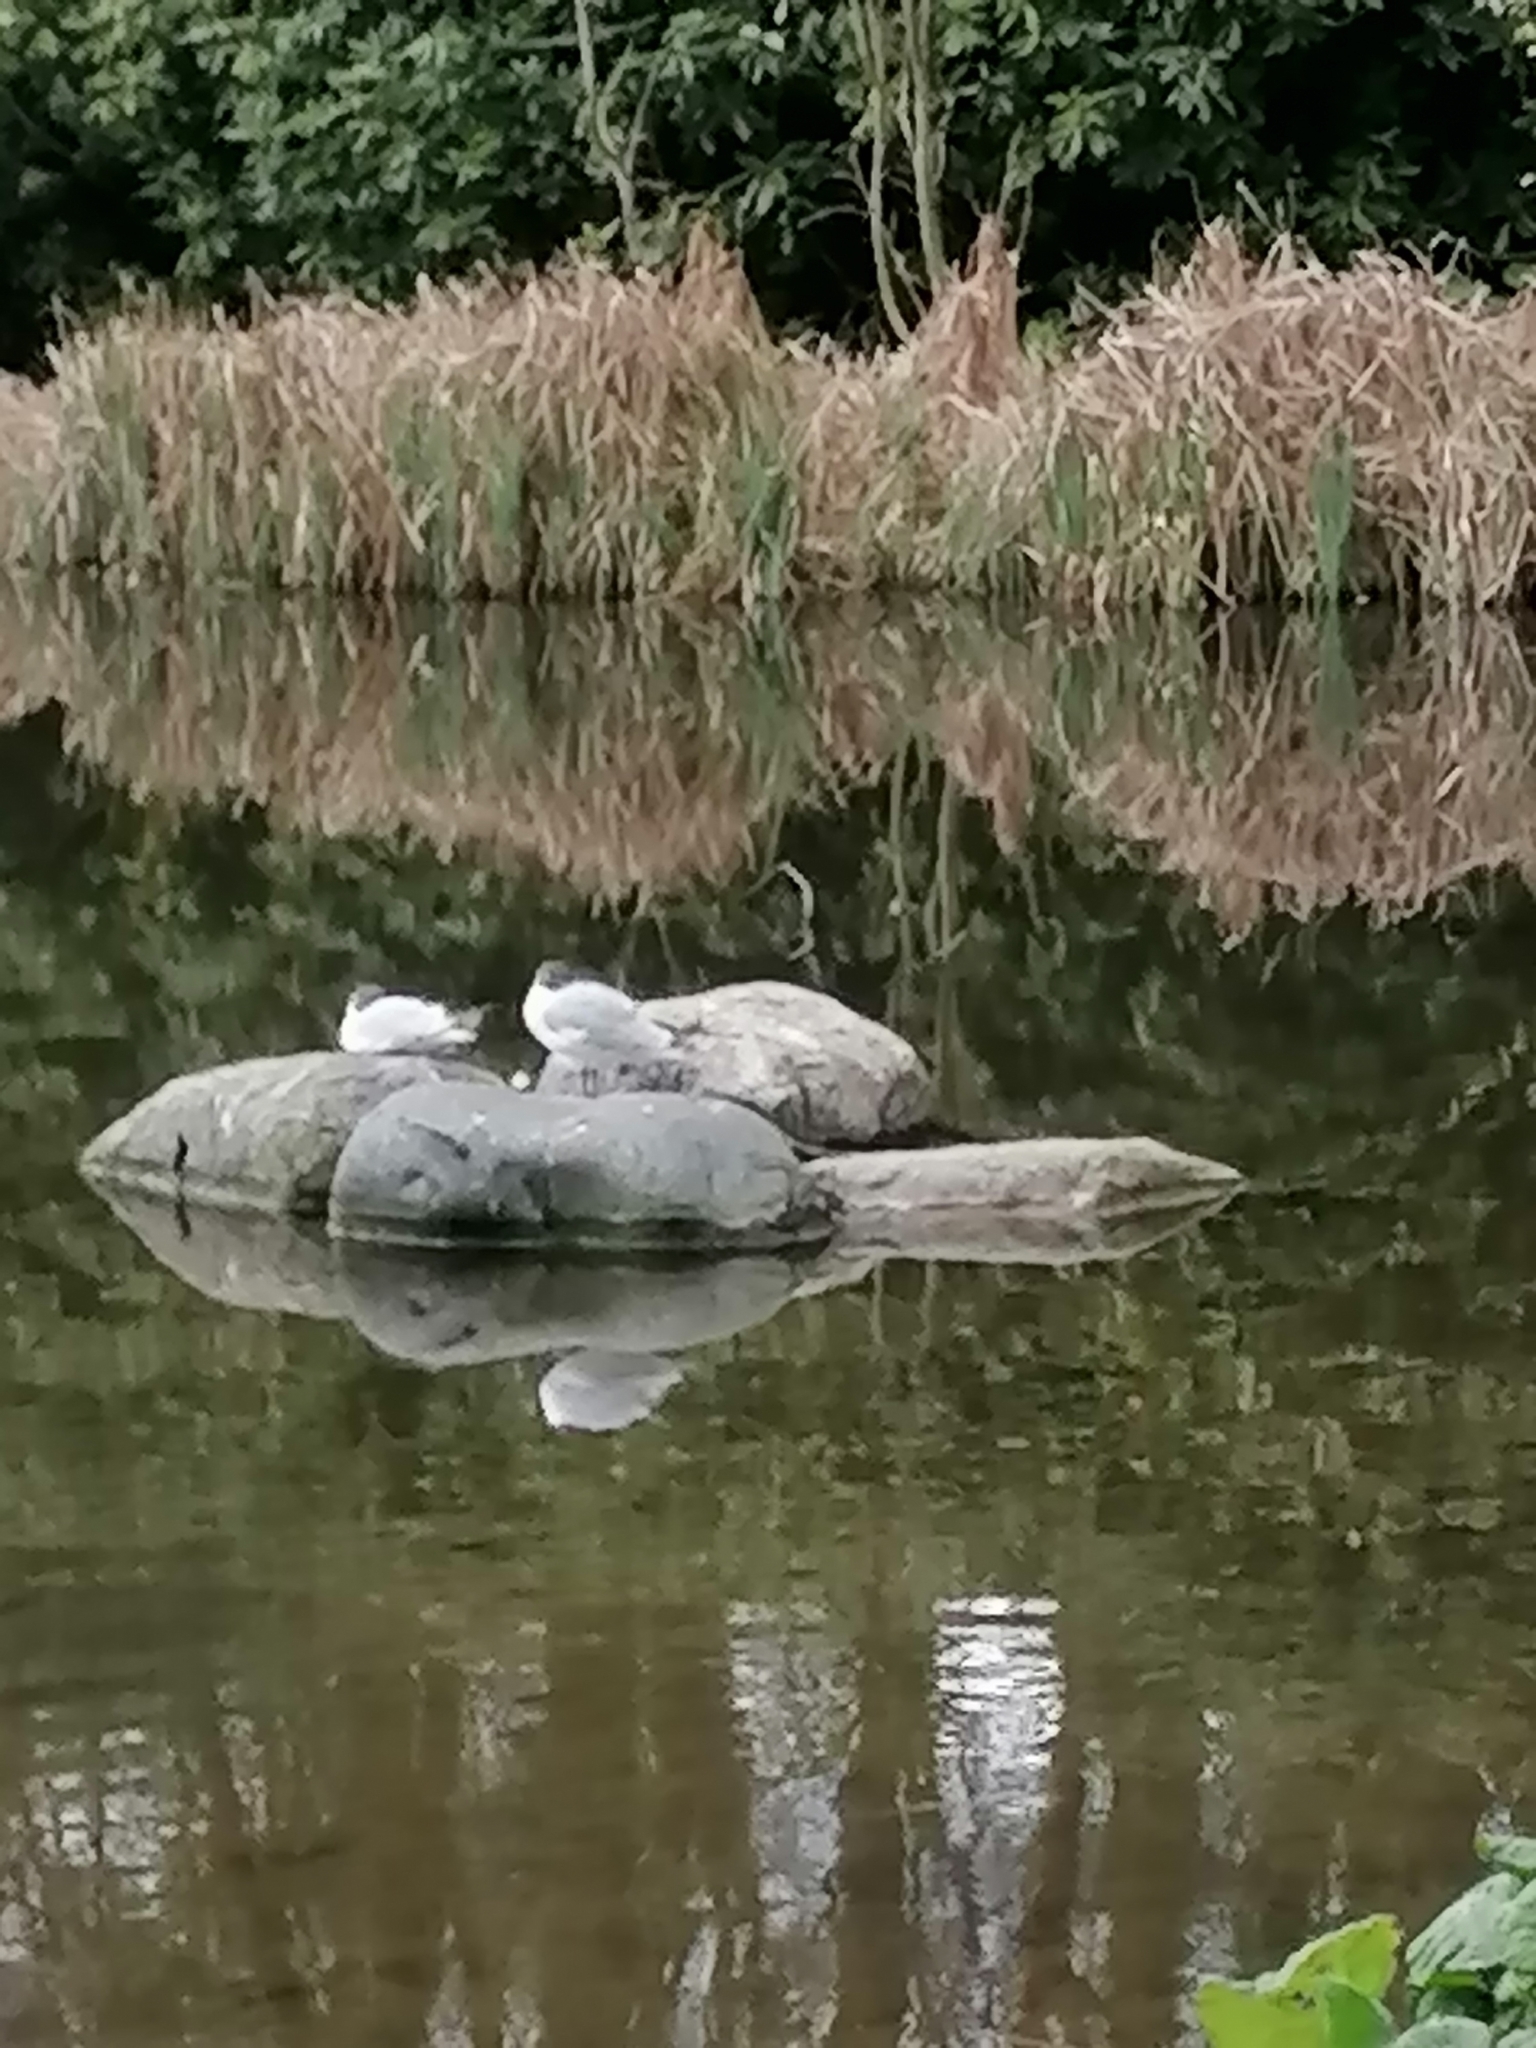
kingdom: Animalia
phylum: Chordata
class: Aves
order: Charadriiformes
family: Laridae
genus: Chroicocephalus
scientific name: Chroicocephalus ridibundus
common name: Black-headed gull
